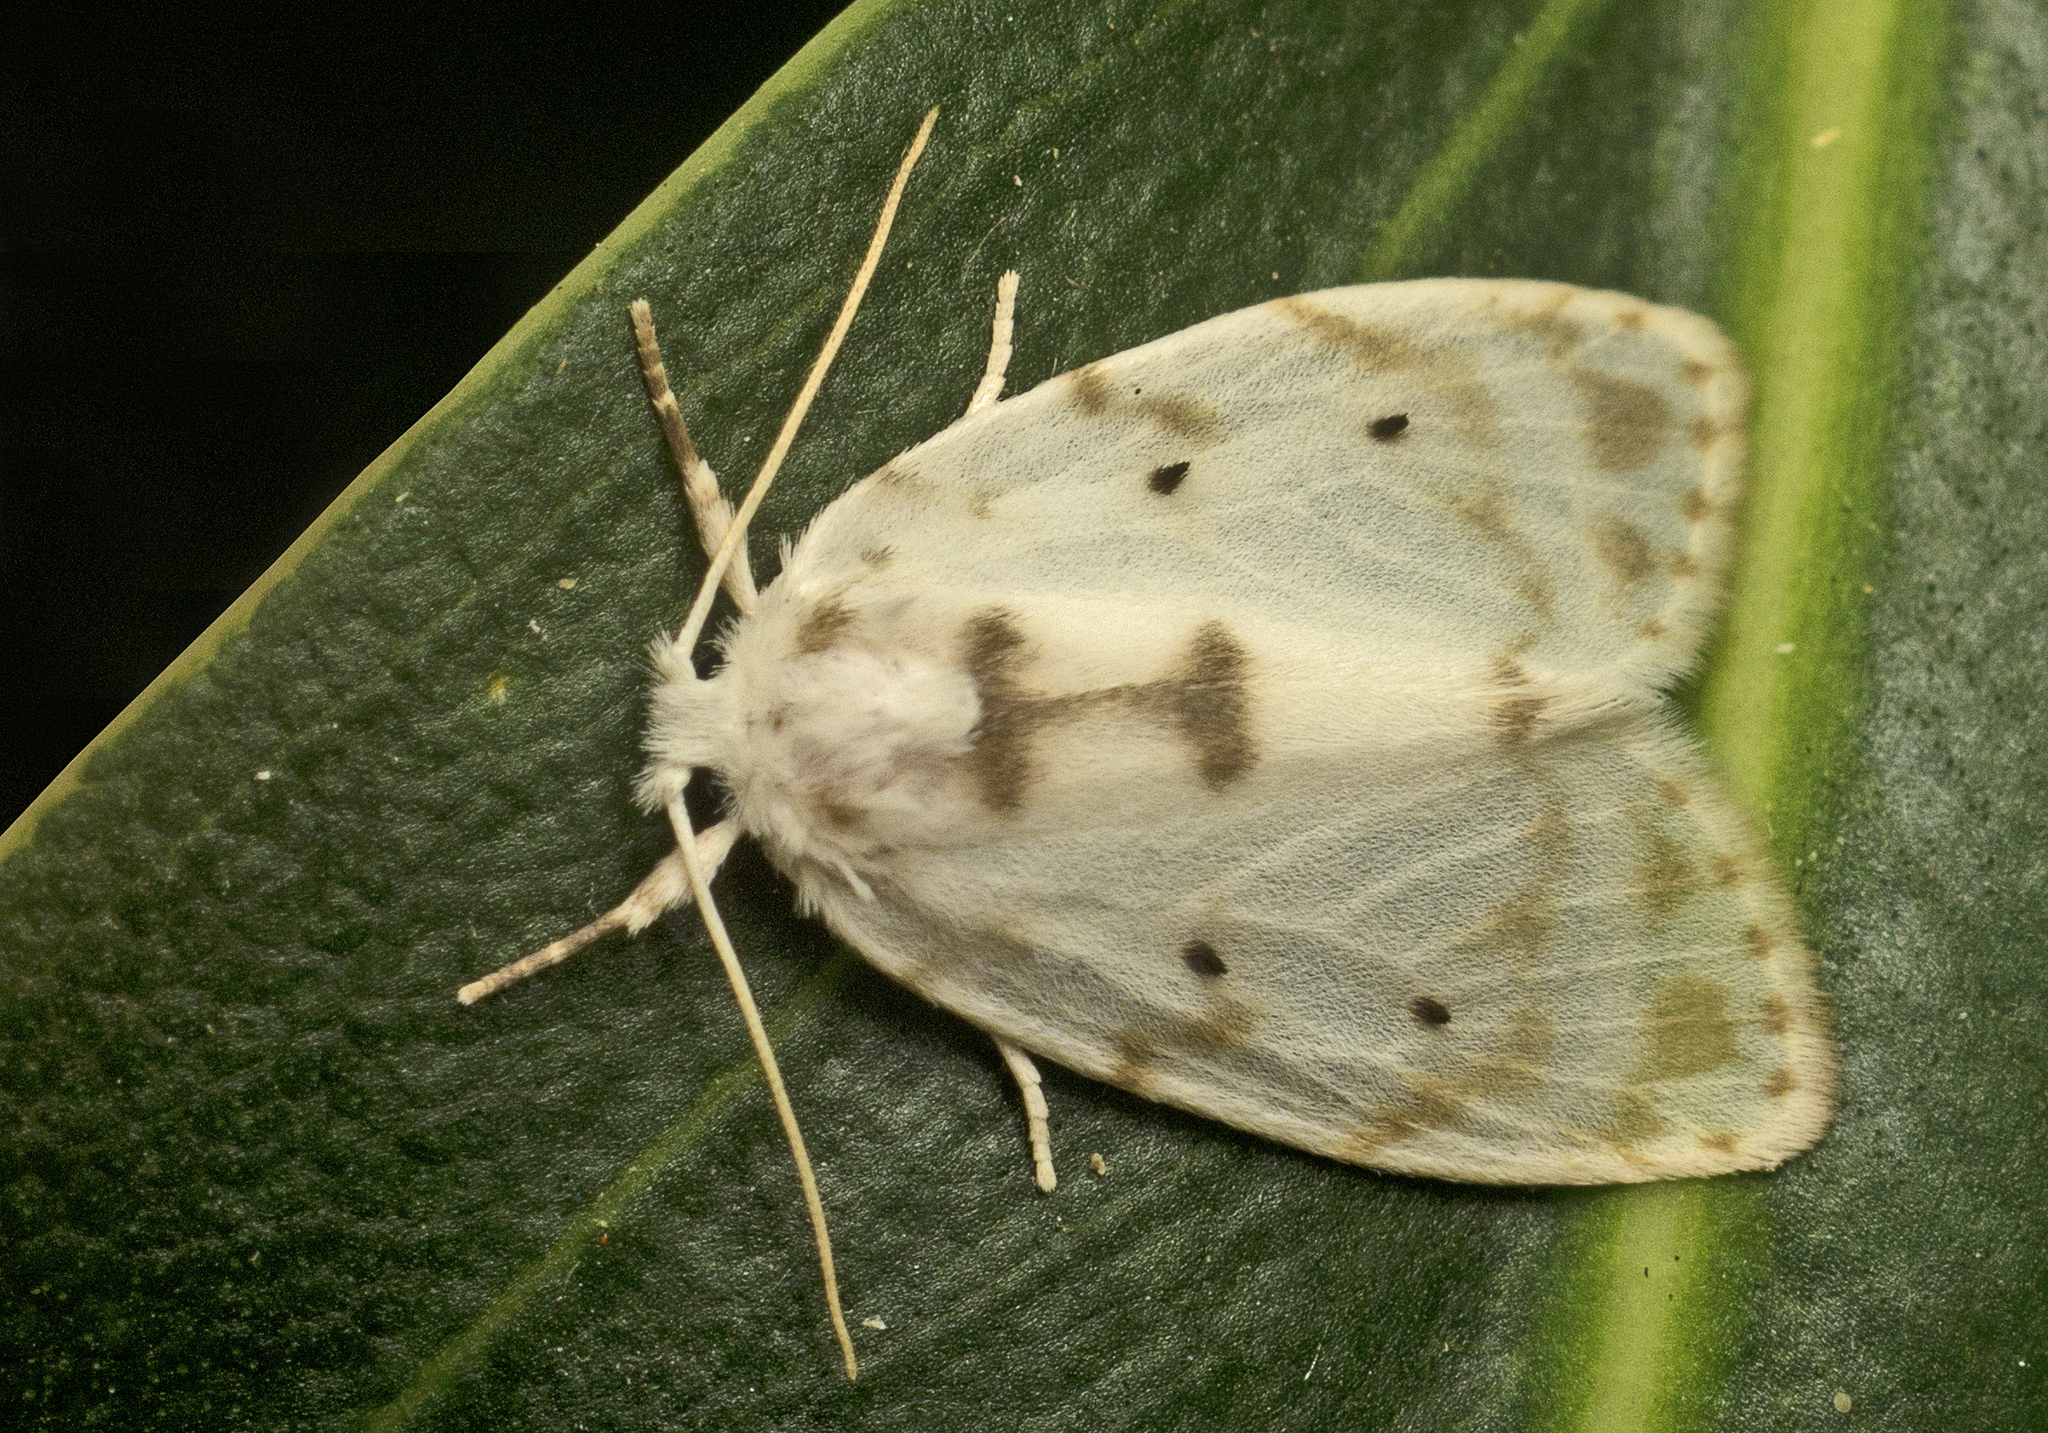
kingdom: Animalia
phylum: Arthropoda
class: Insecta
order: Lepidoptera
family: Erebidae
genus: Schistophleps
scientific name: Schistophleps albida
